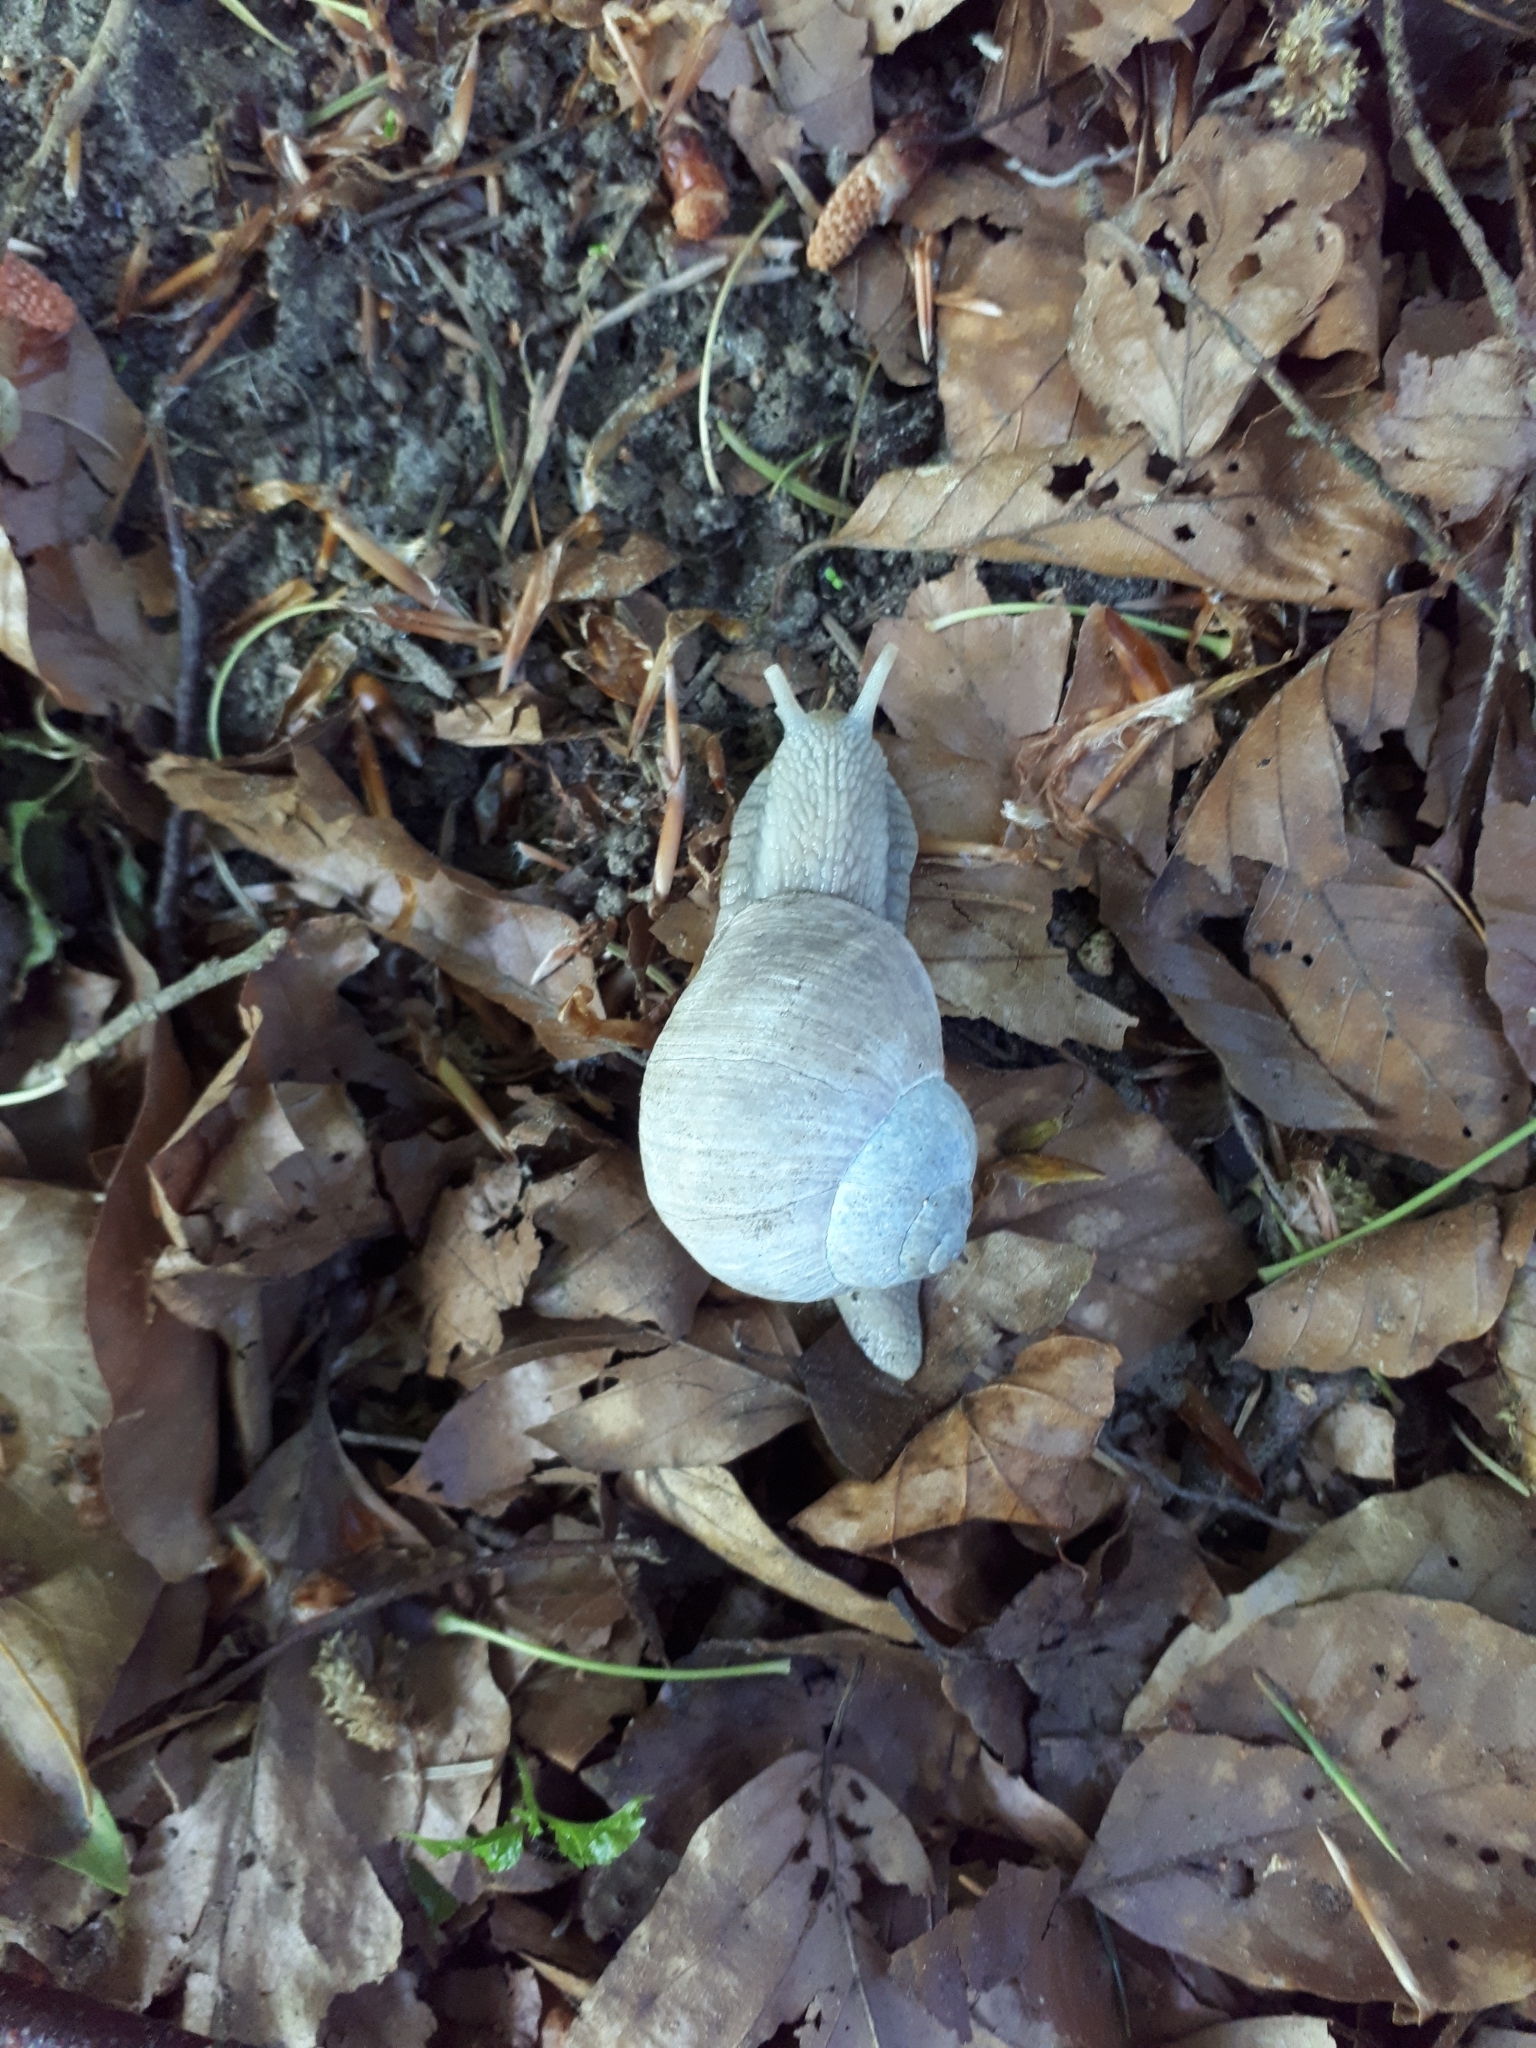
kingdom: Animalia
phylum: Mollusca
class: Gastropoda
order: Stylommatophora
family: Helicidae
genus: Helix
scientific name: Helix pomatia
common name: Roman snail
